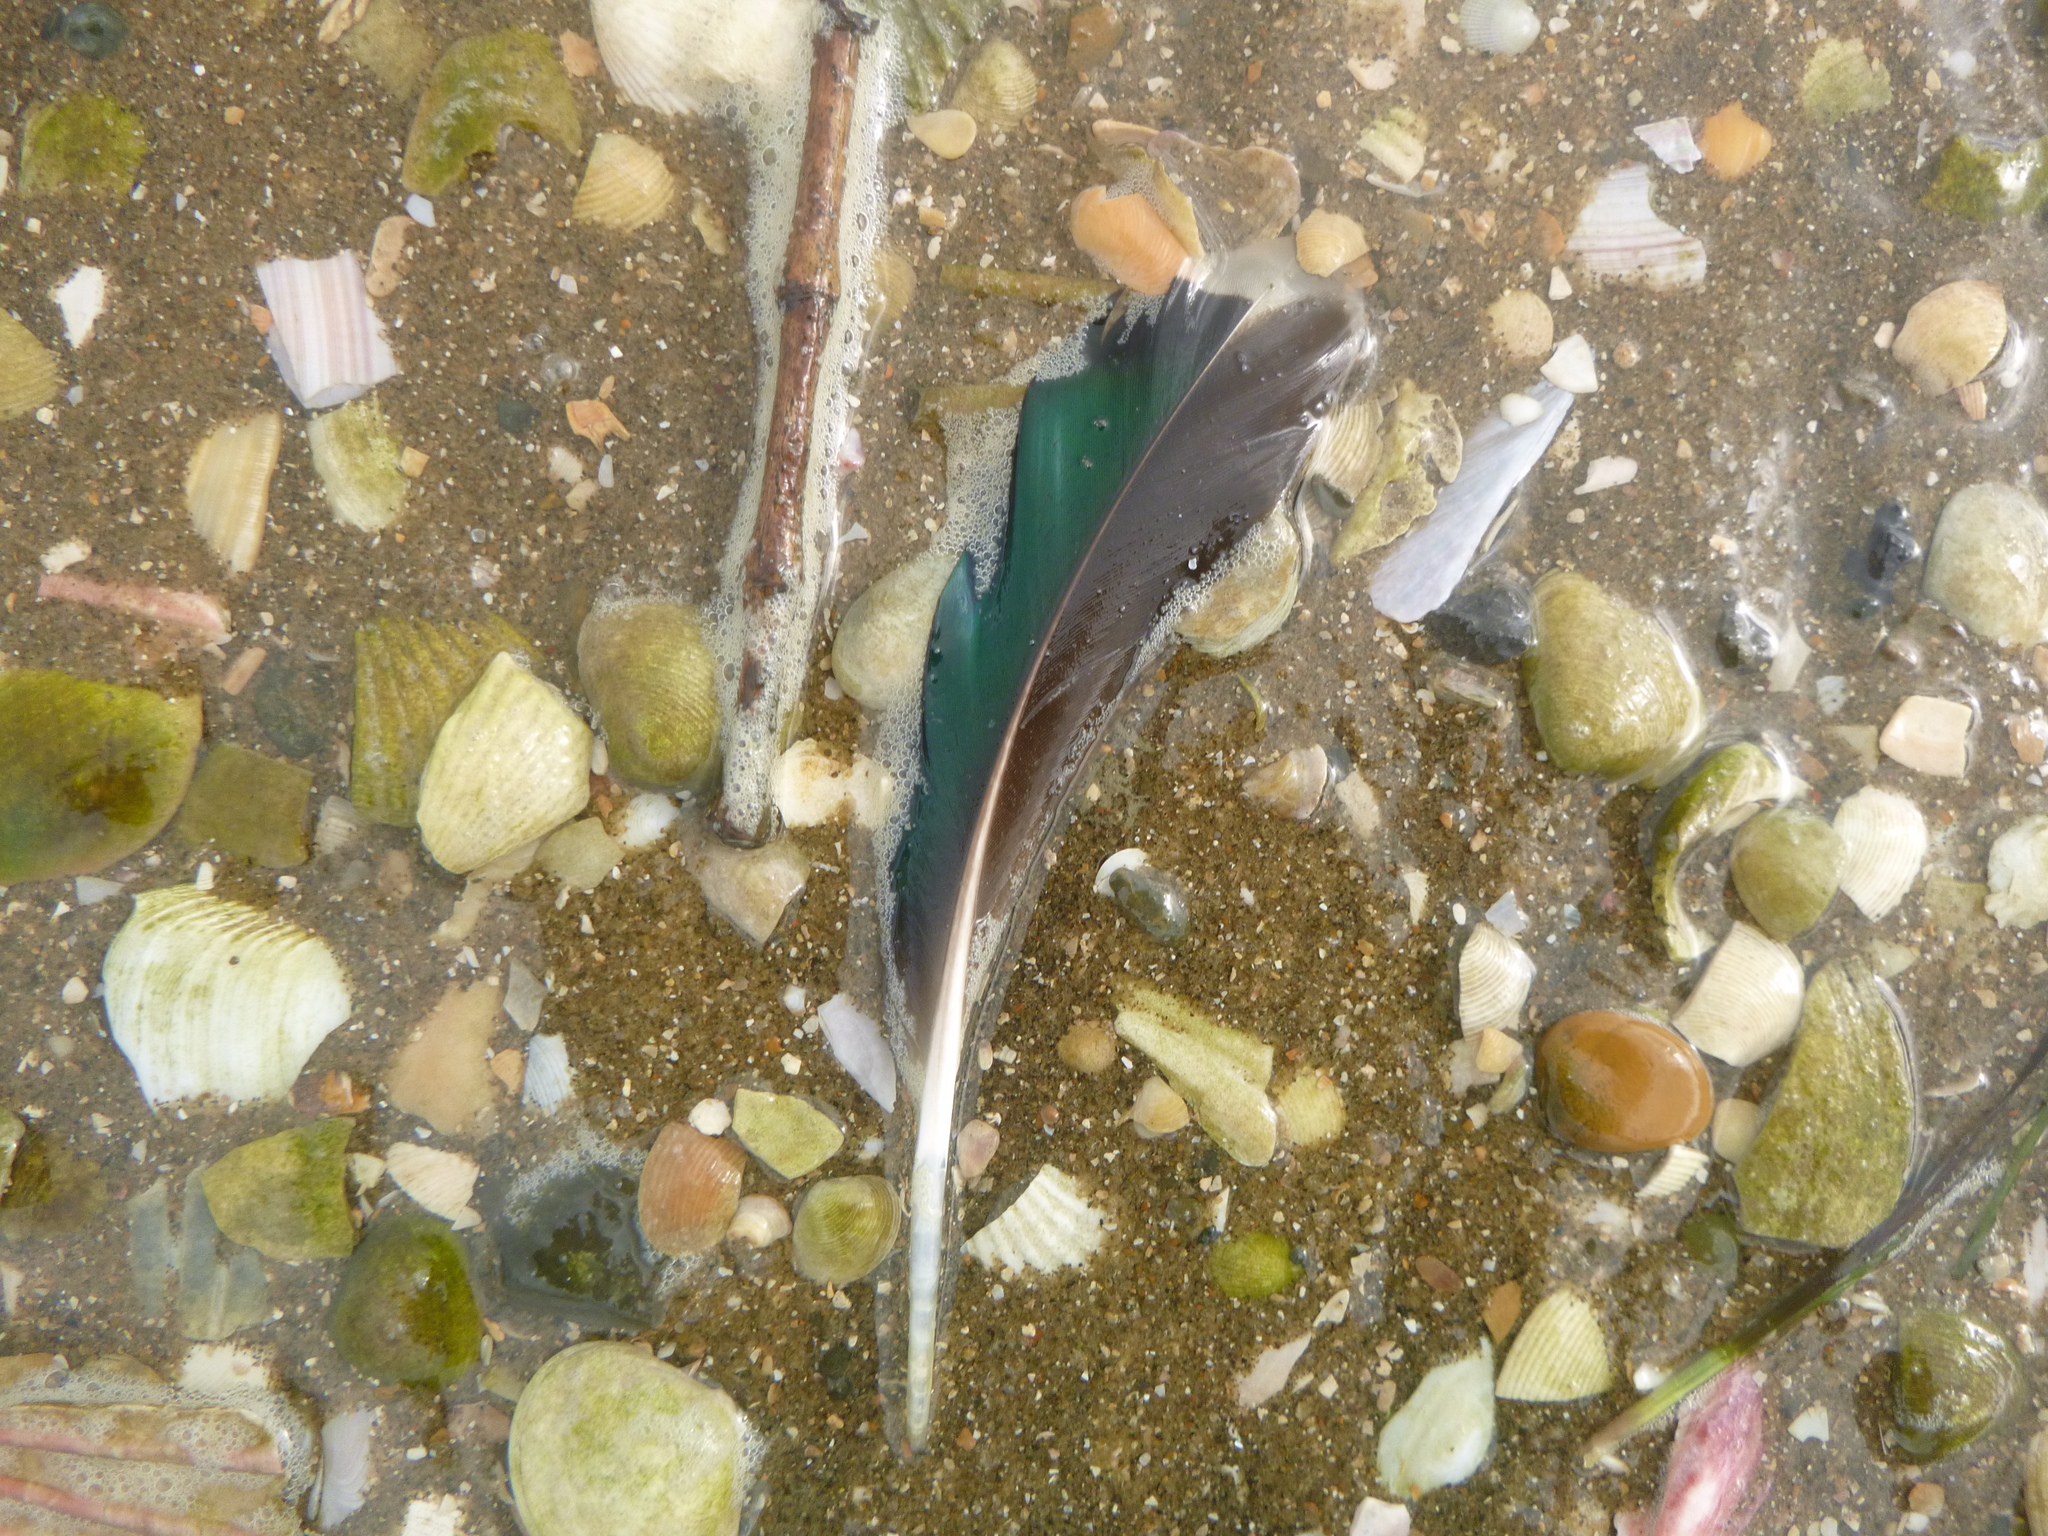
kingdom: Animalia
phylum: Chordata
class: Aves
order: Anseriformes
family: Anatidae
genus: Anas
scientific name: Anas platyrhynchos
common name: Mallard
